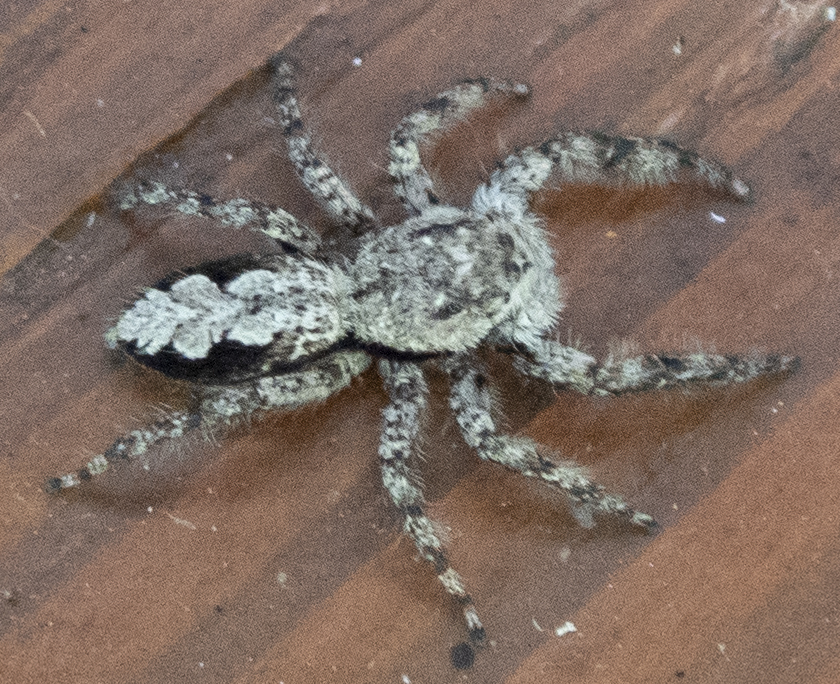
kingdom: Animalia
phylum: Arthropoda
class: Arachnida
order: Araneae
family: Salticidae
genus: Platycryptus
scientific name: Platycryptus undatus
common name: Tan jumping spider
